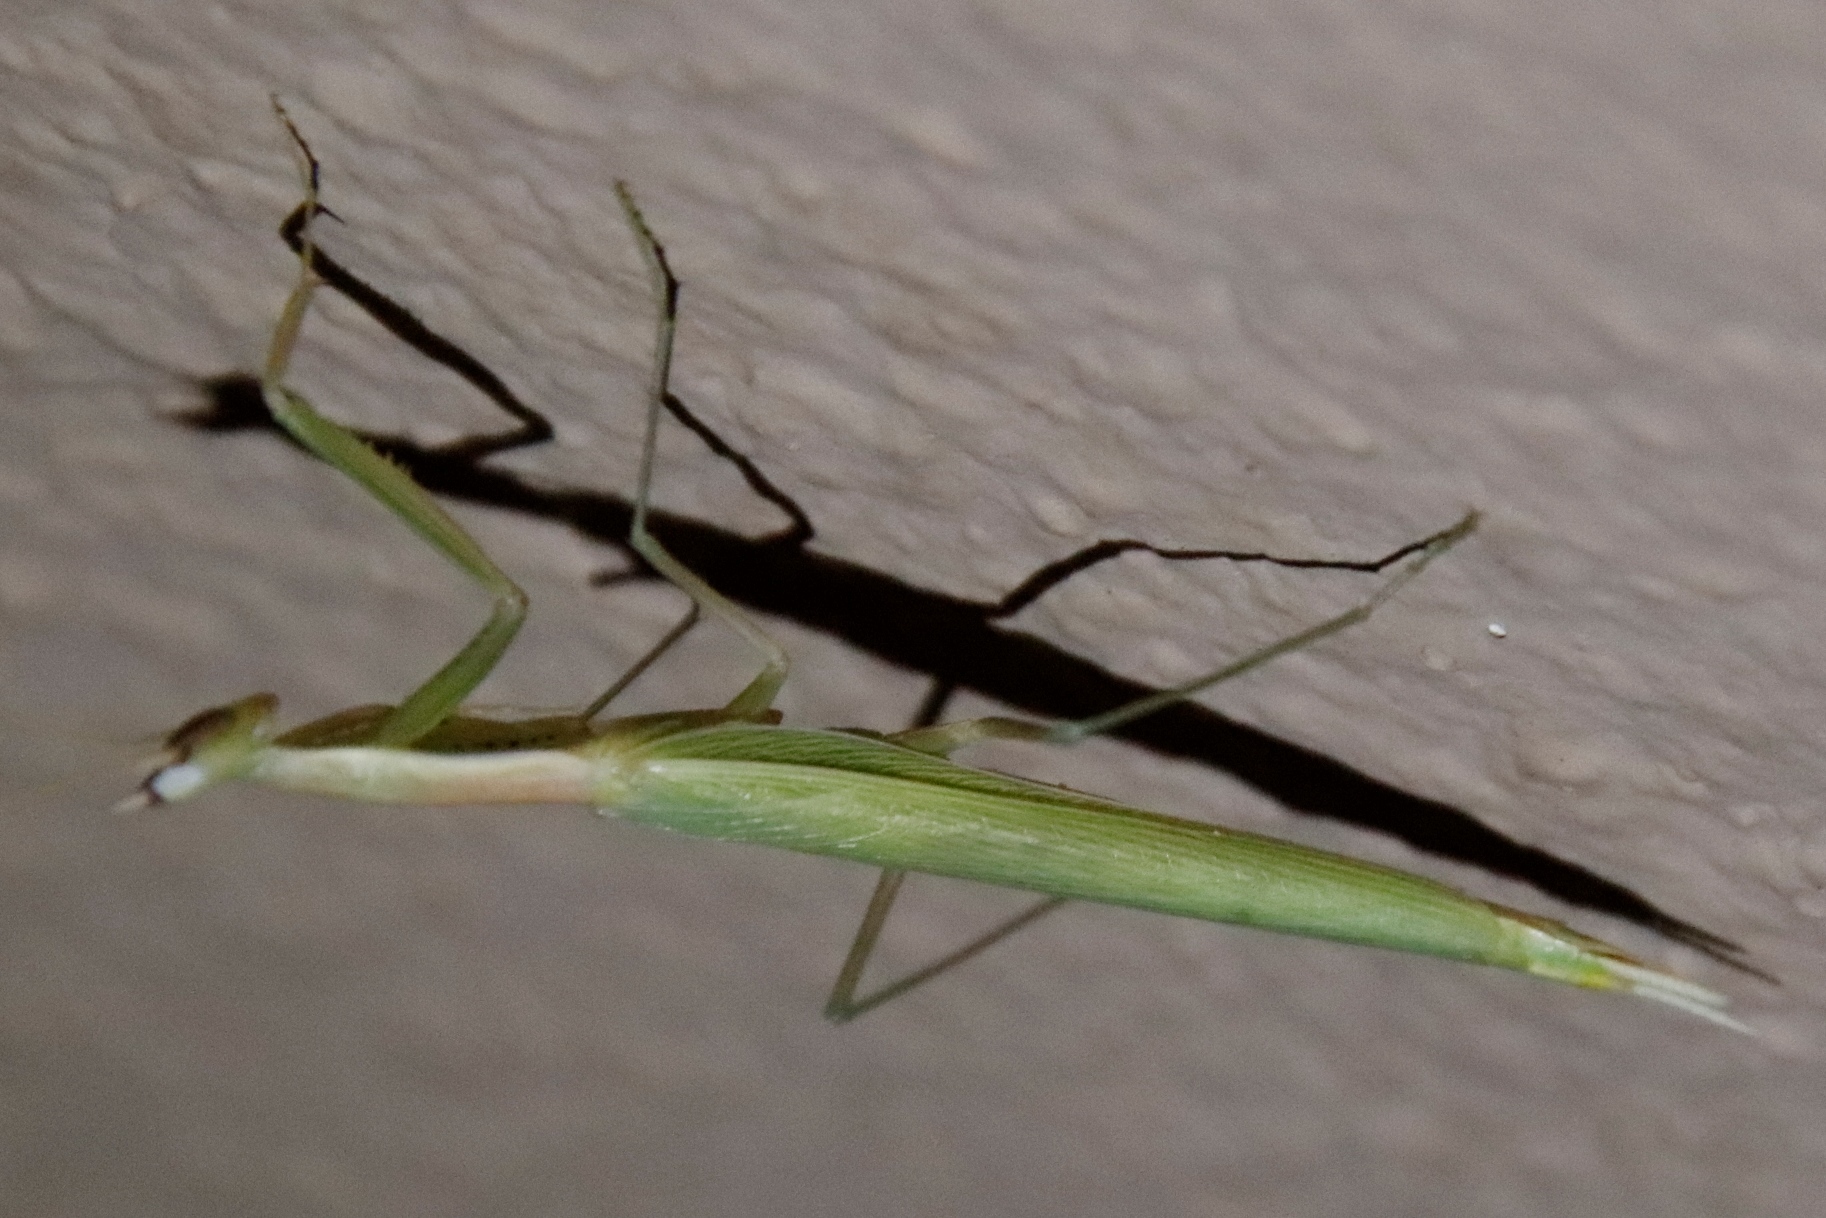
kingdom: Animalia
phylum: Arthropoda
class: Insecta
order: Mantodea
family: Eremiaphilidae
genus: Episcopomantis
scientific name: Episcopomantis chalybea
